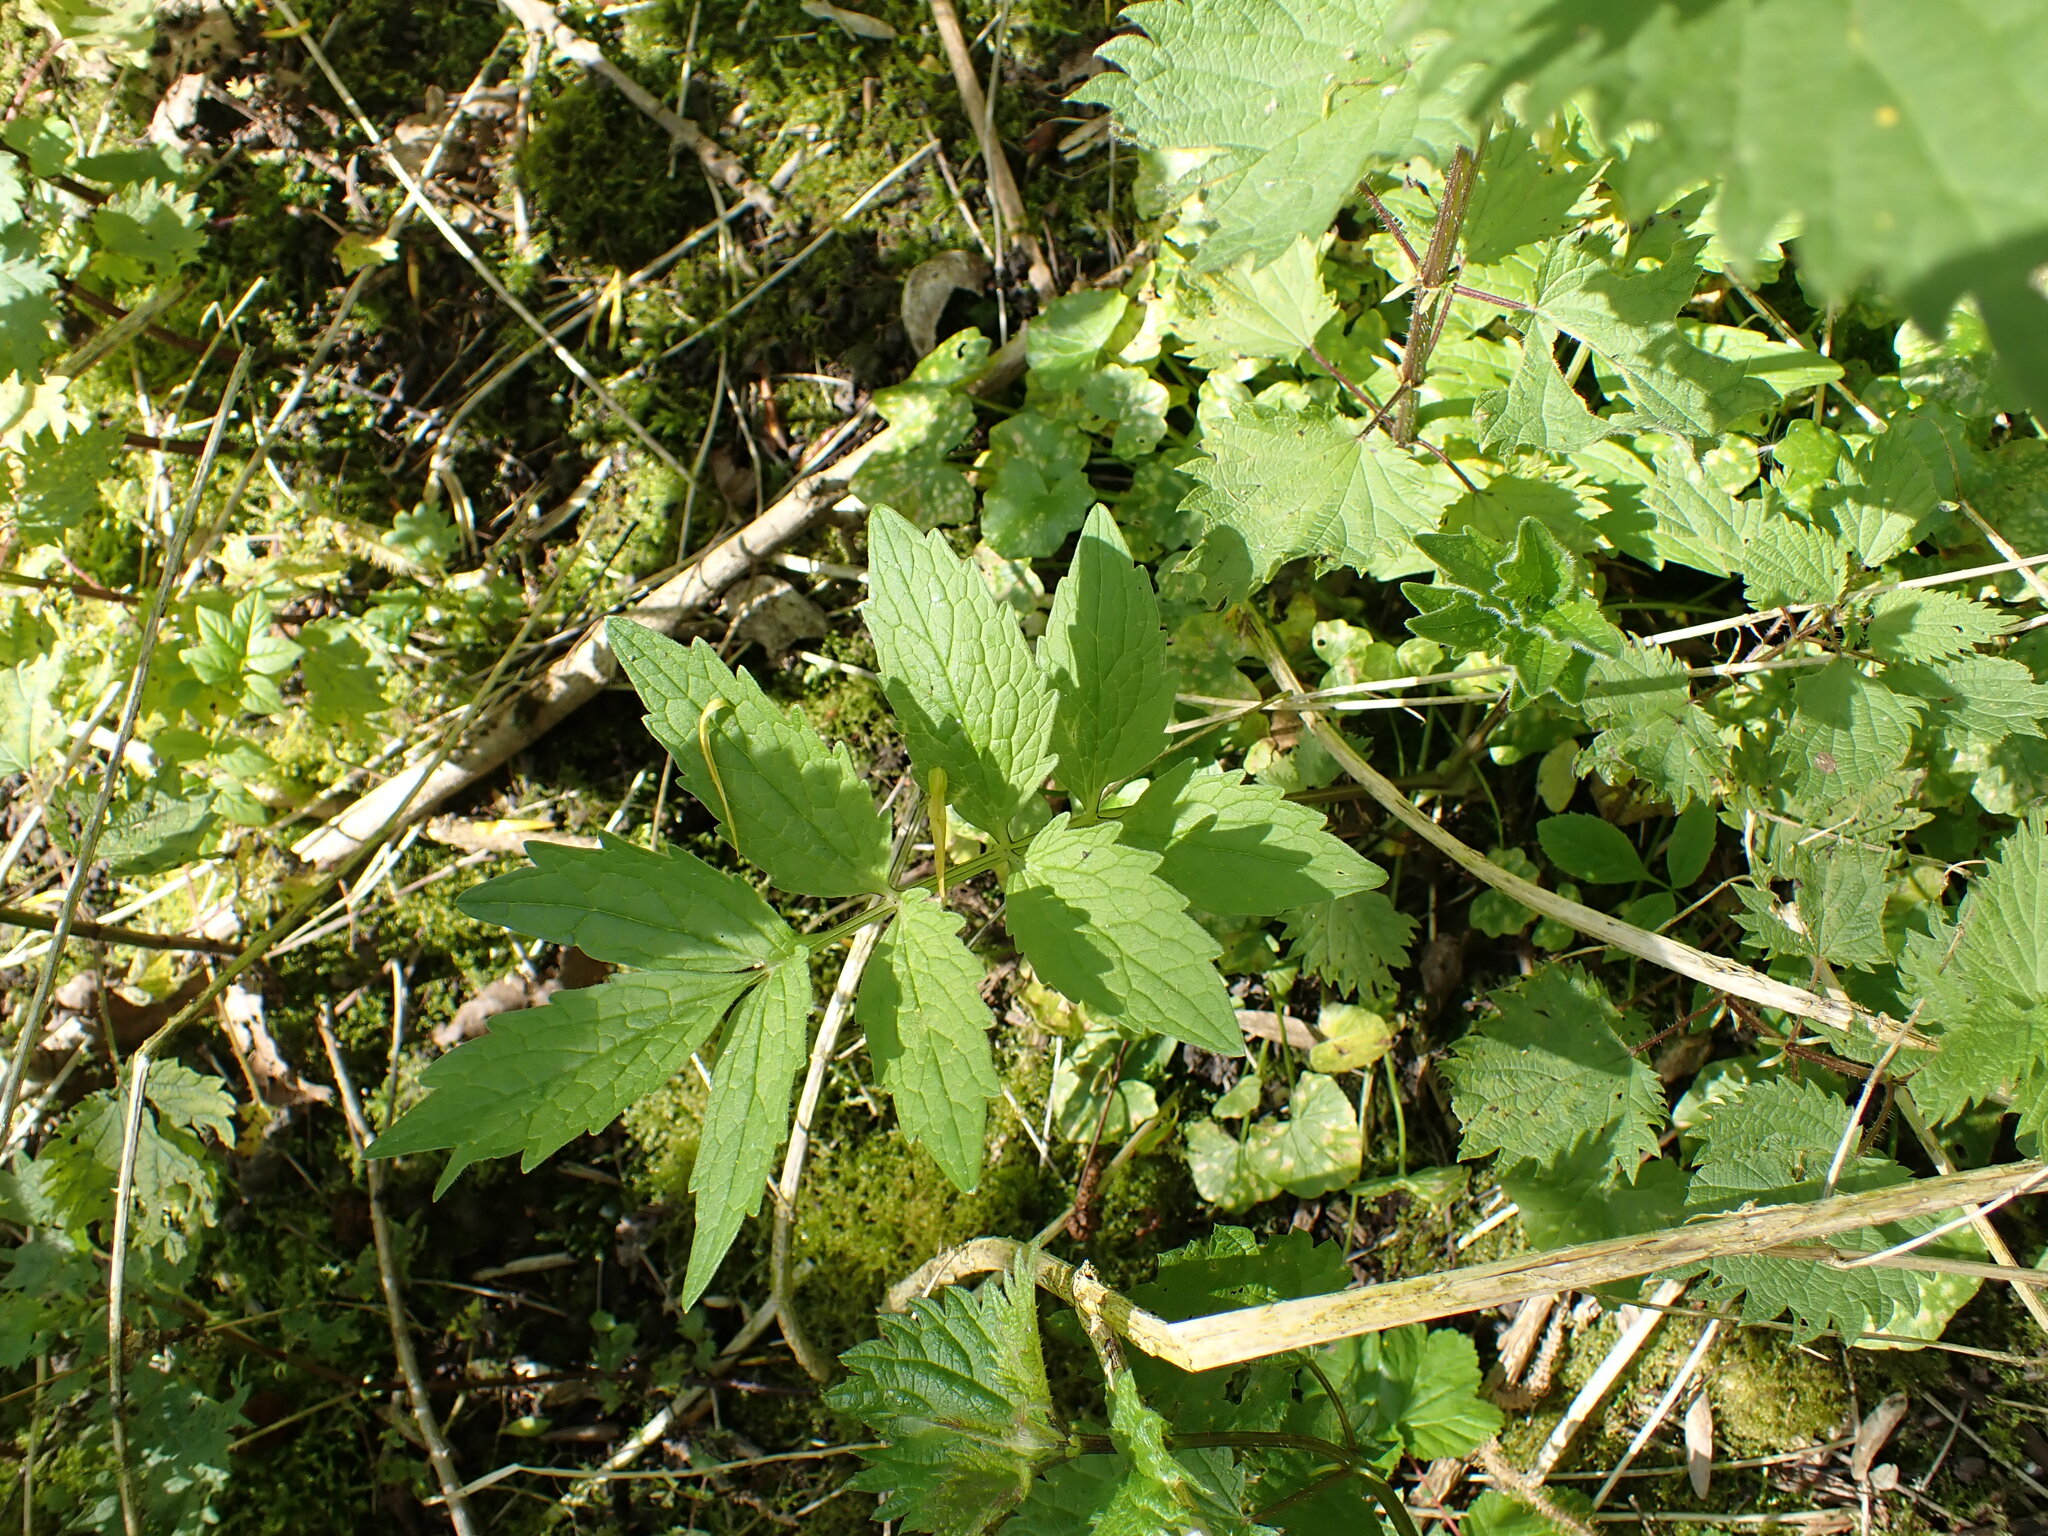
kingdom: Plantae
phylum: Tracheophyta
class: Magnoliopsida
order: Dipsacales
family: Caprifoliaceae
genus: Valeriana
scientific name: Valeriana officinalis
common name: Common valerian
